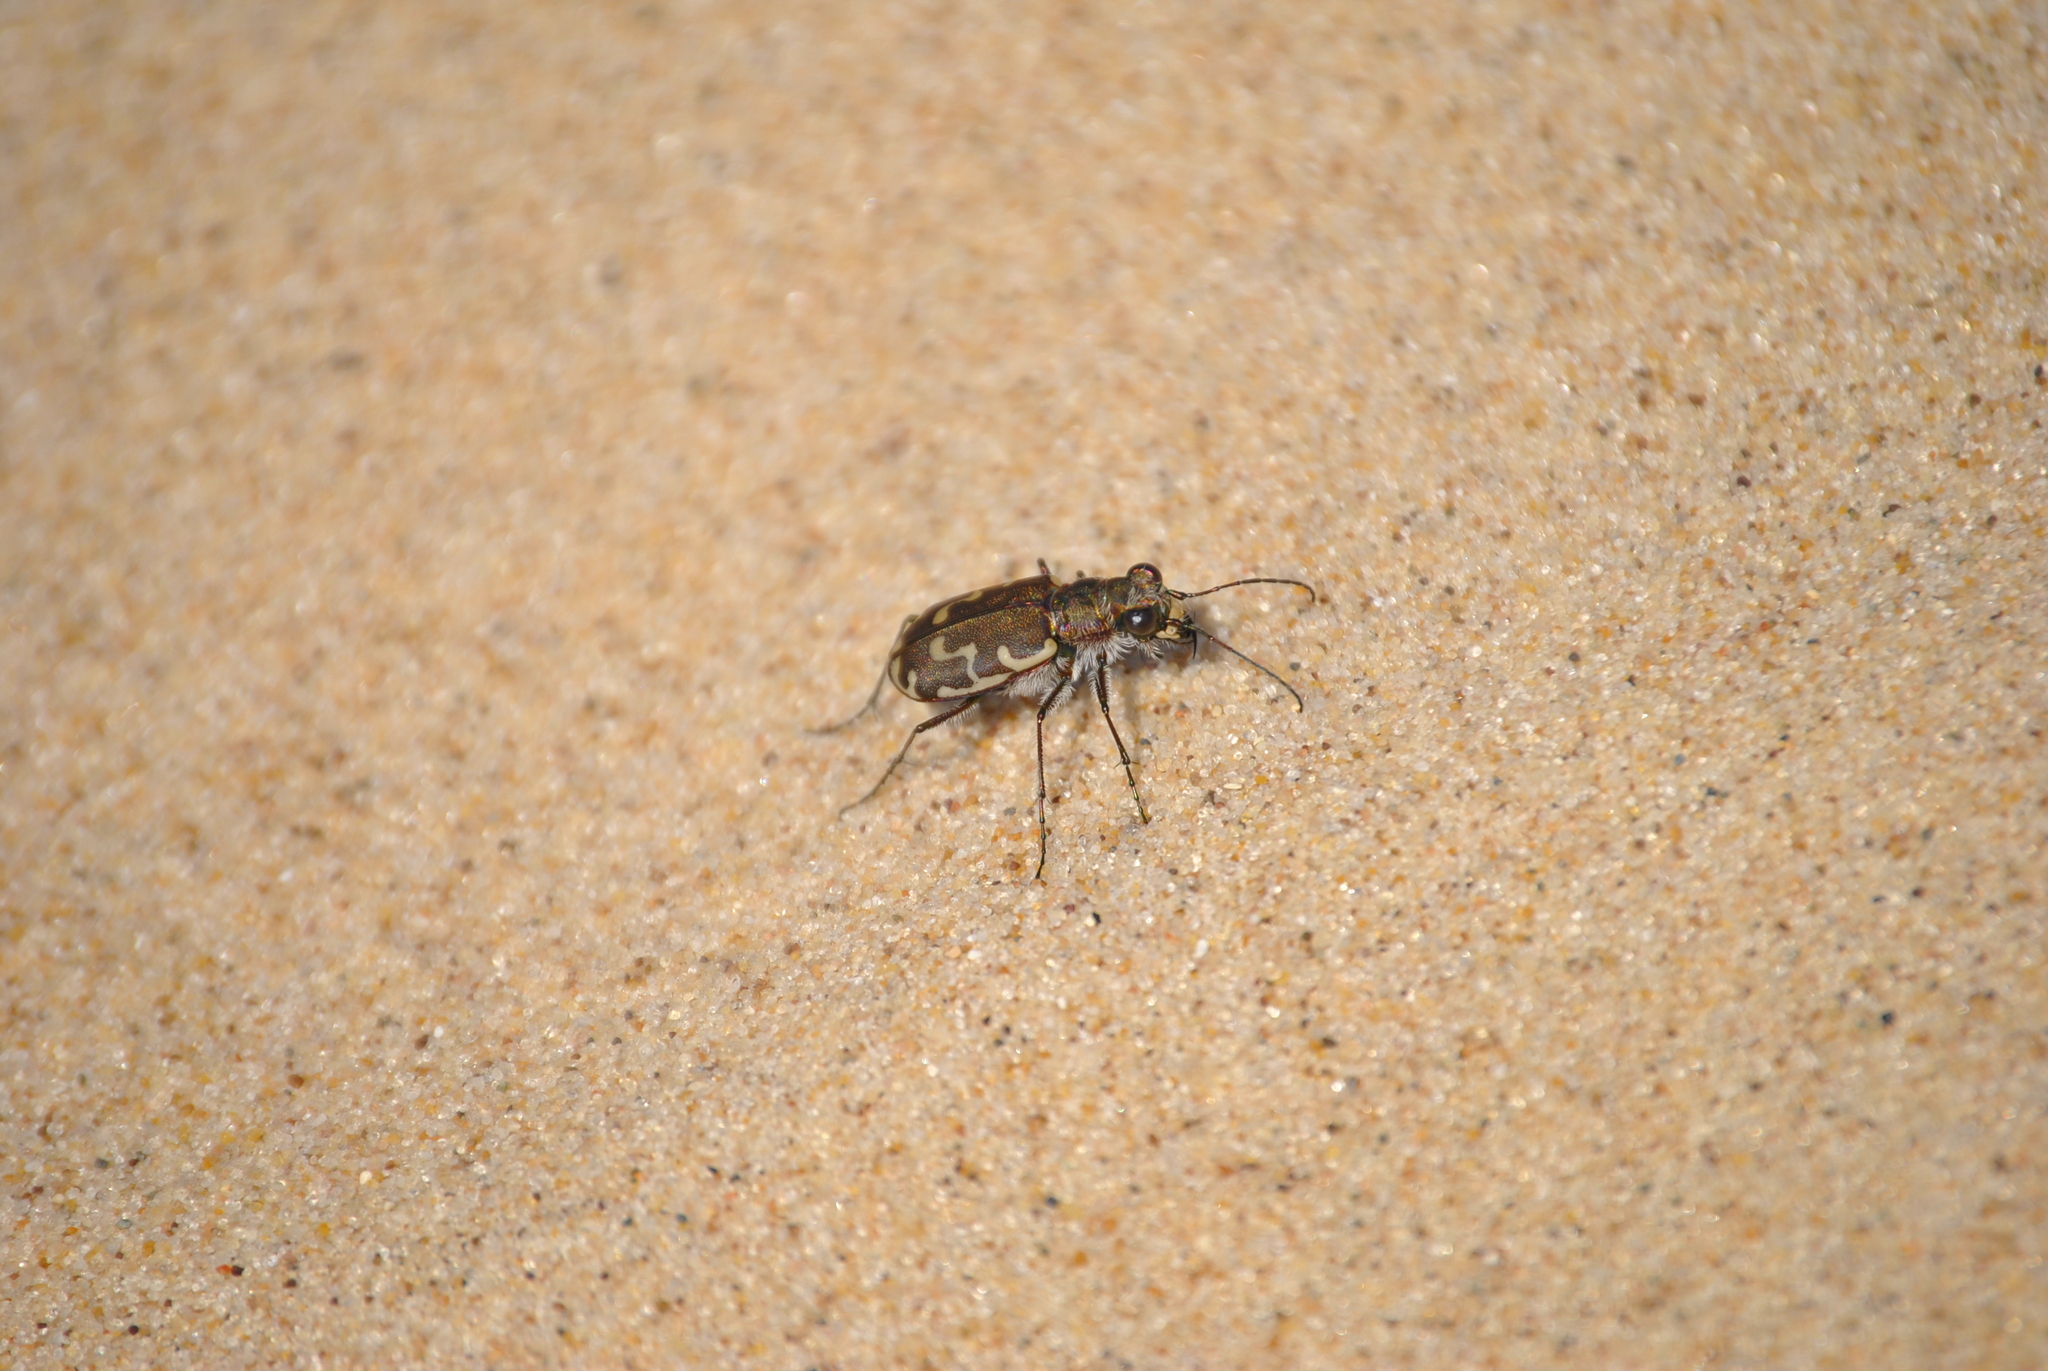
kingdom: Animalia
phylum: Arthropoda
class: Insecta
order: Coleoptera
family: Carabidae
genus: Cicindela
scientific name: Cicindela repanda
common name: Bronzed tiger beetle
